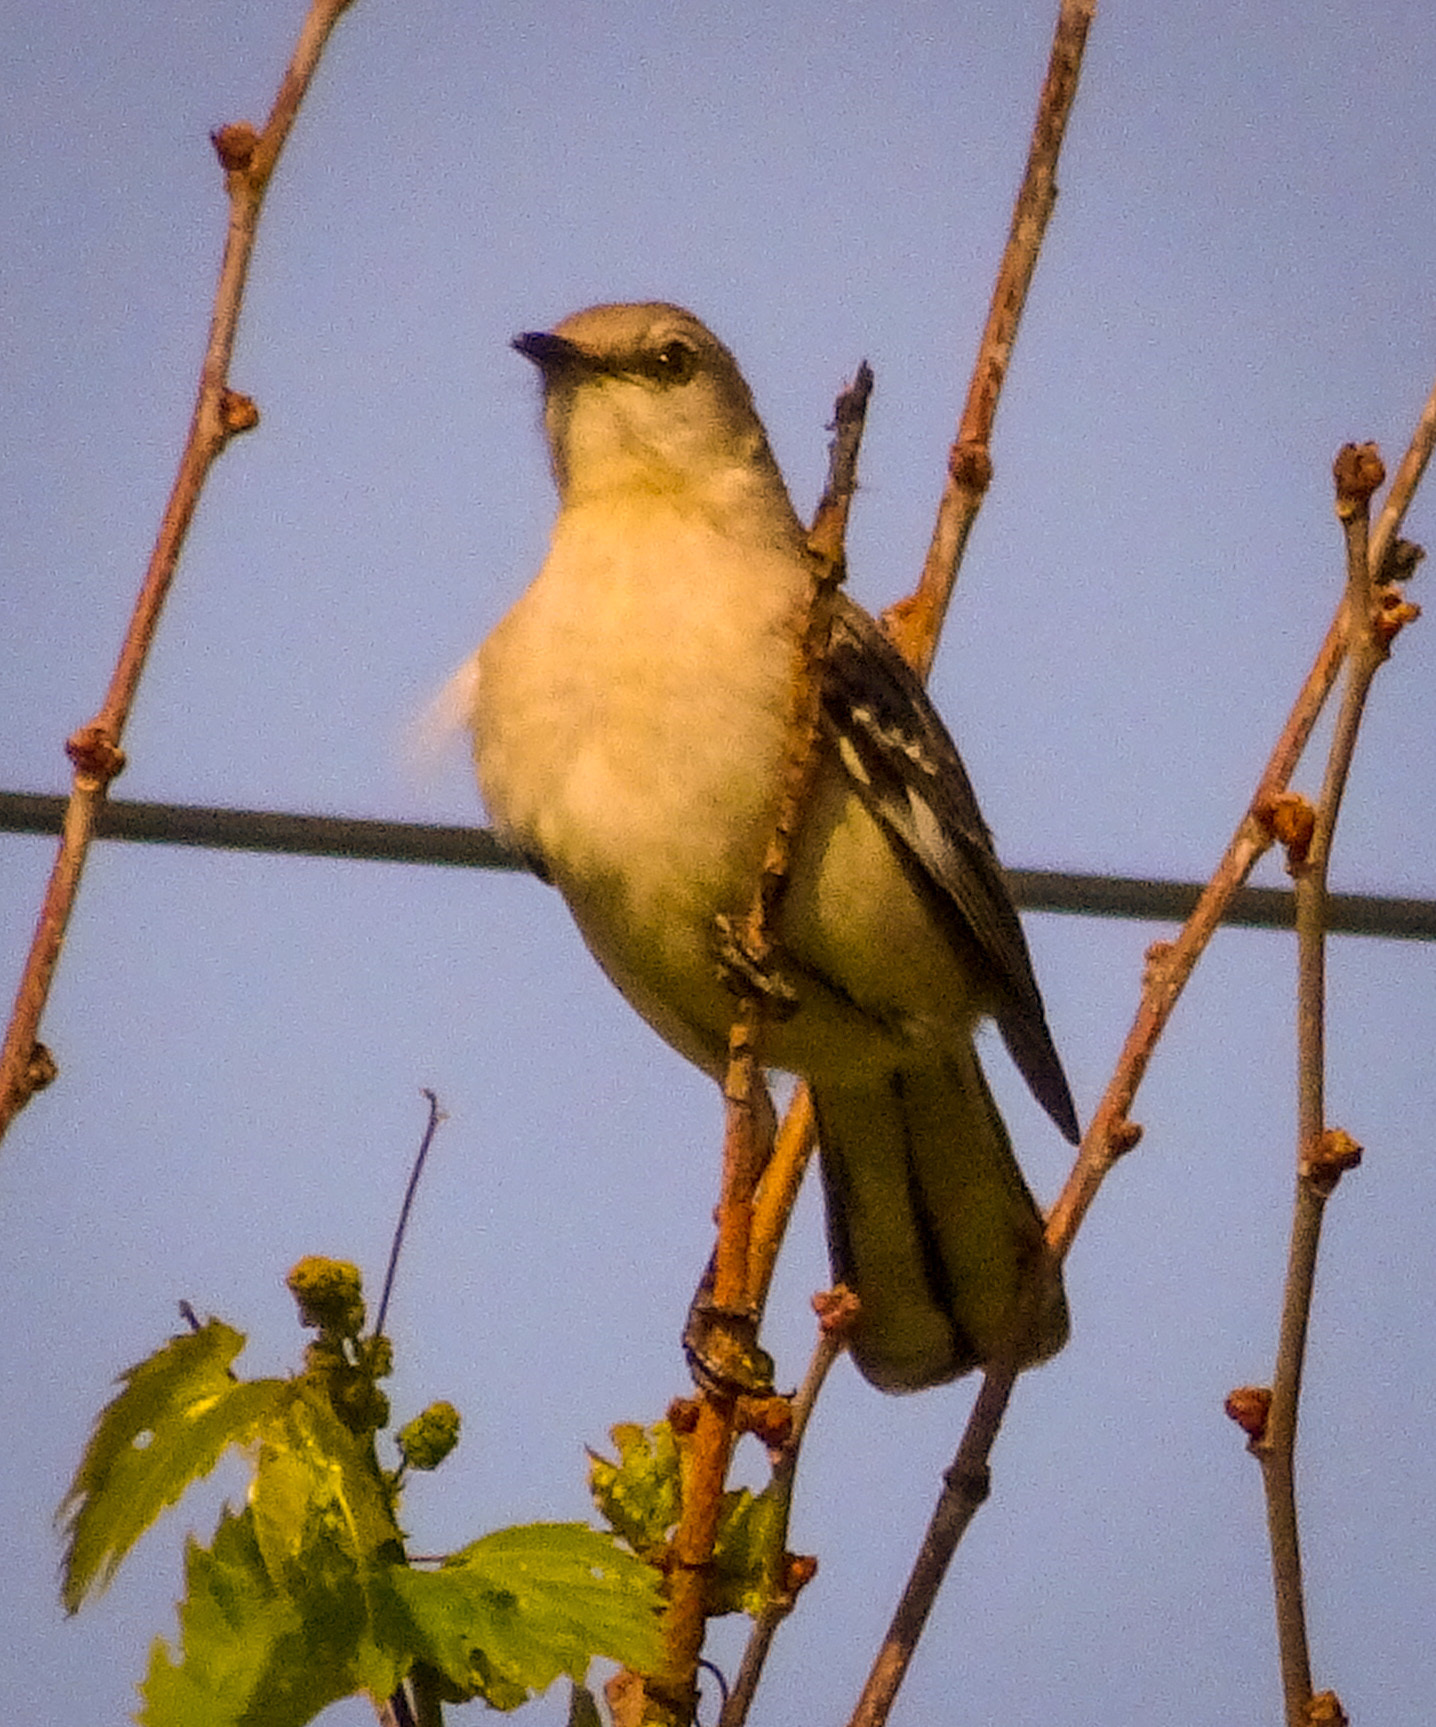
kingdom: Animalia
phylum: Chordata
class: Aves
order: Passeriformes
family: Mimidae
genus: Mimus
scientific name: Mimus polyglottos
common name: Northern mockingbird
